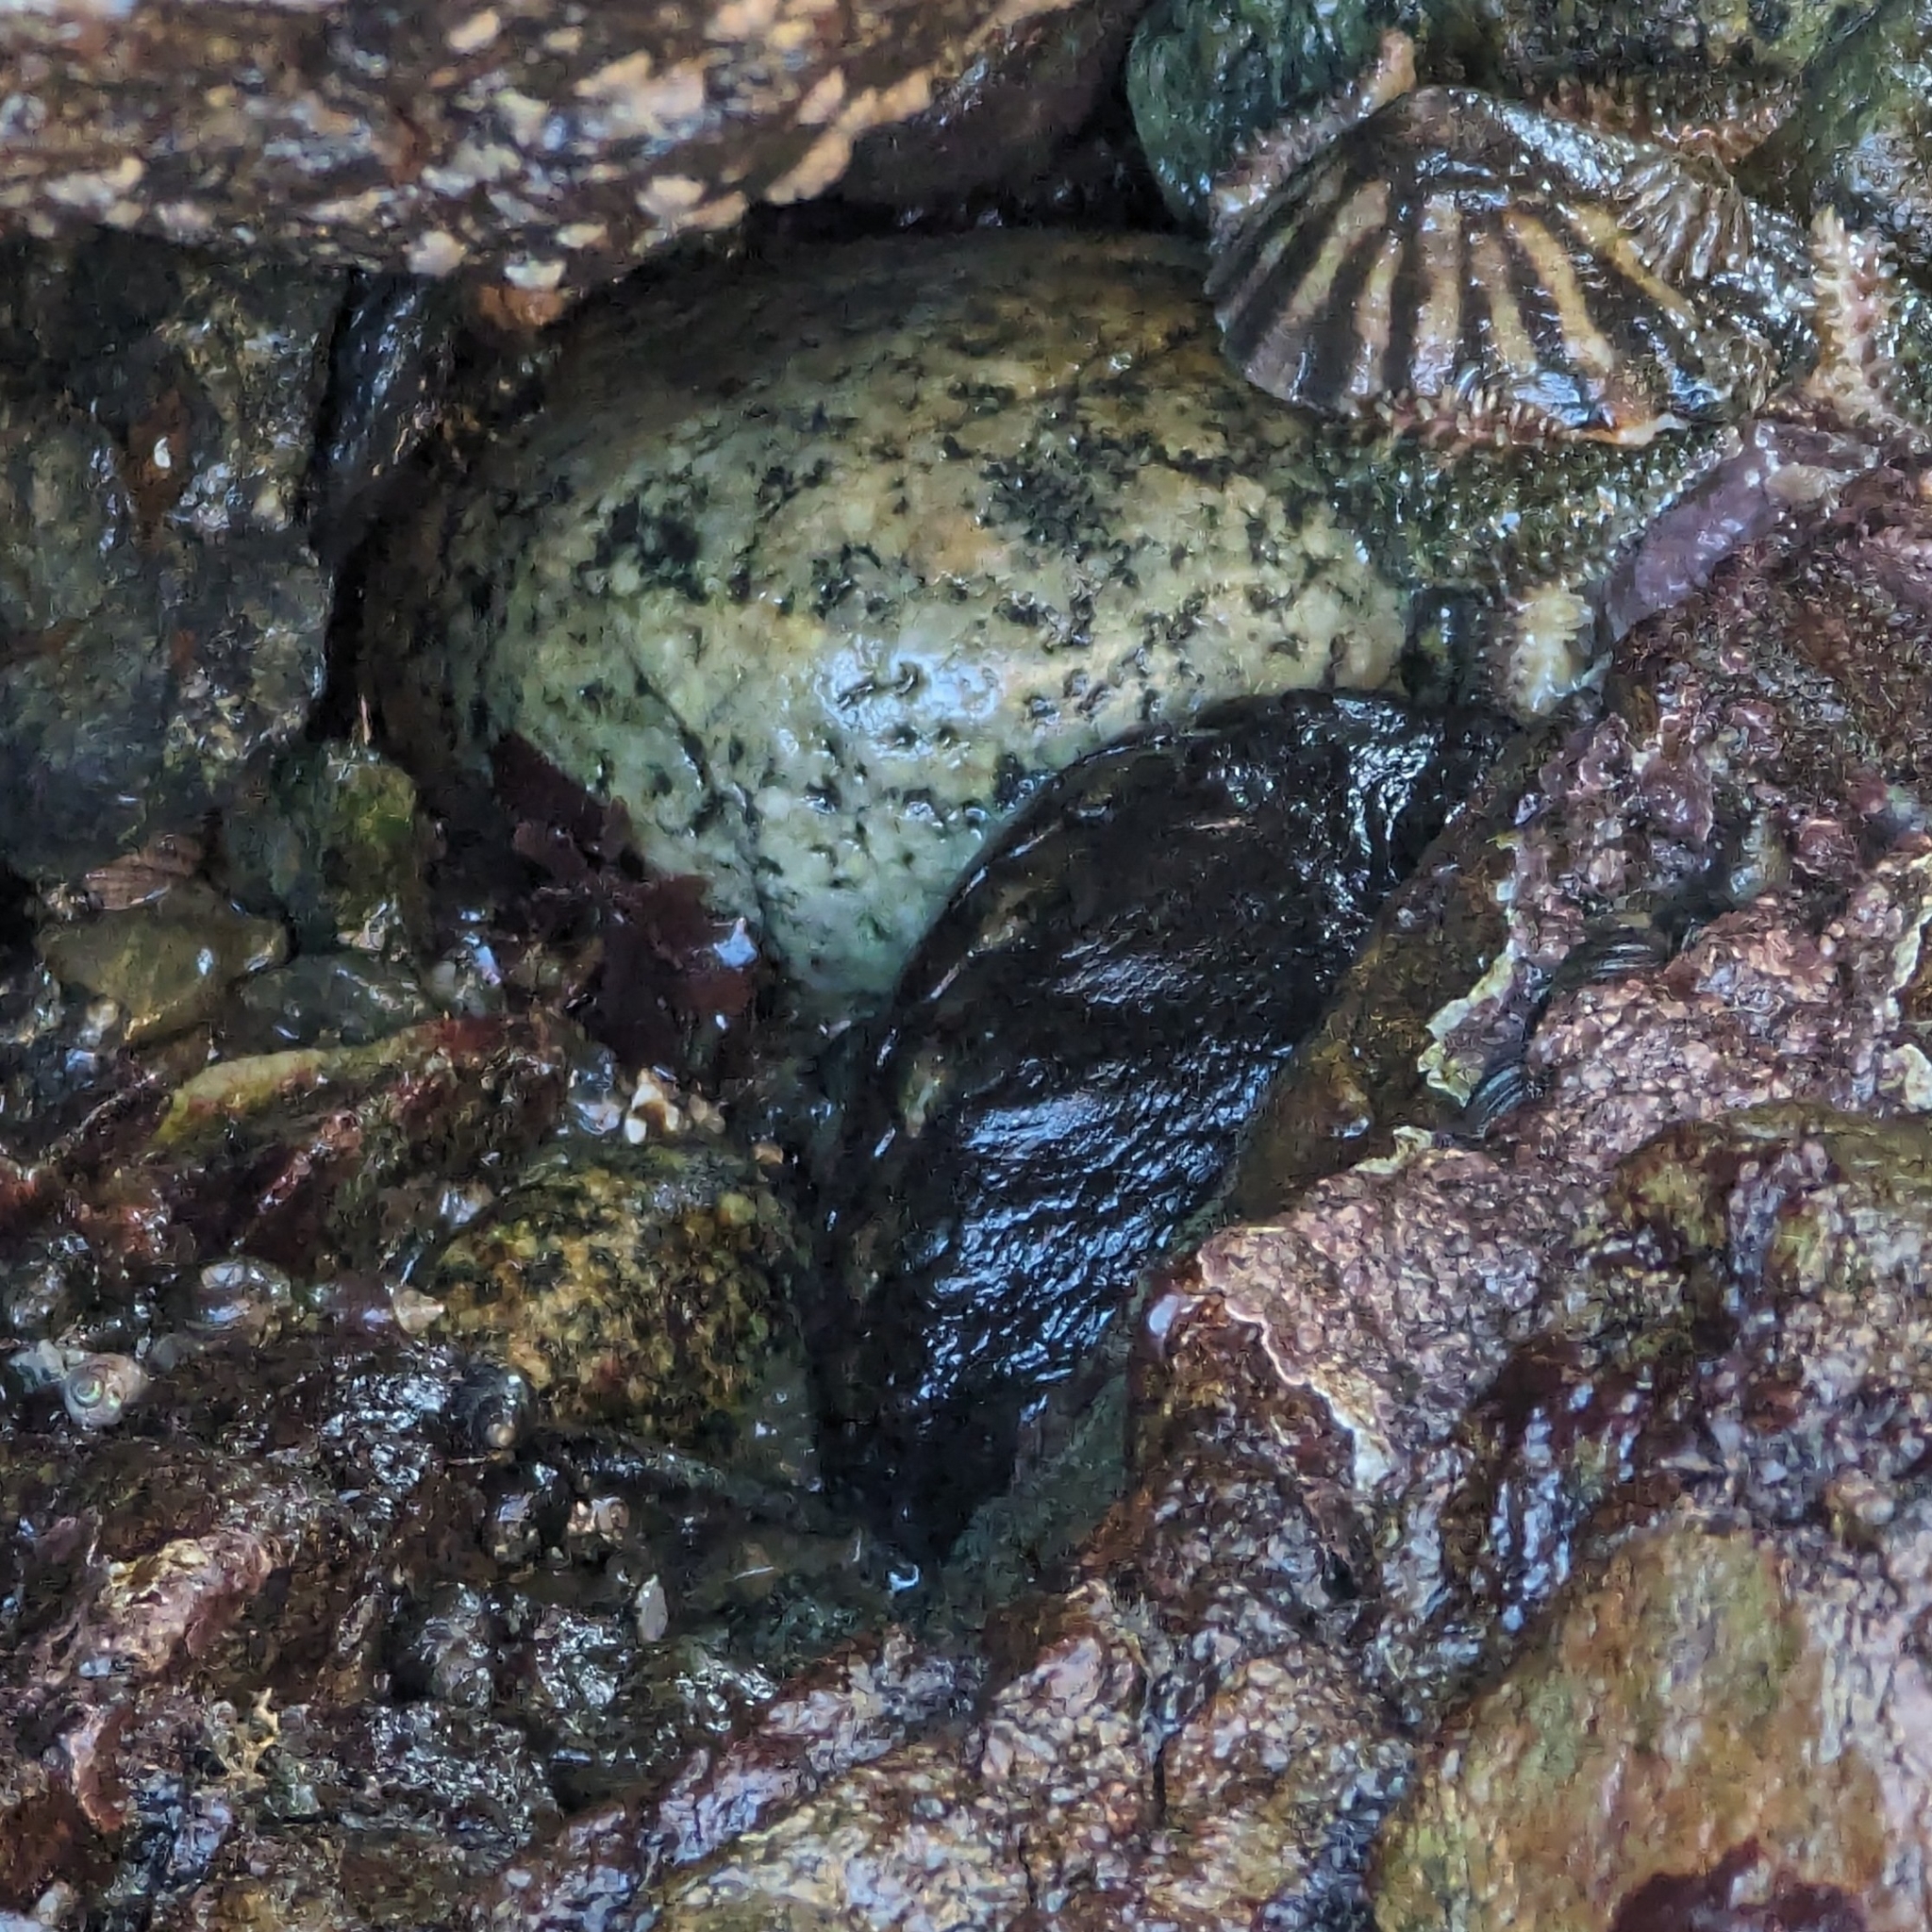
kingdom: Animalia
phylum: Mollusca
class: Polyplacophora
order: Chitonida
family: Mopaliidae
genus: Katharina
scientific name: Katharina tunicata
